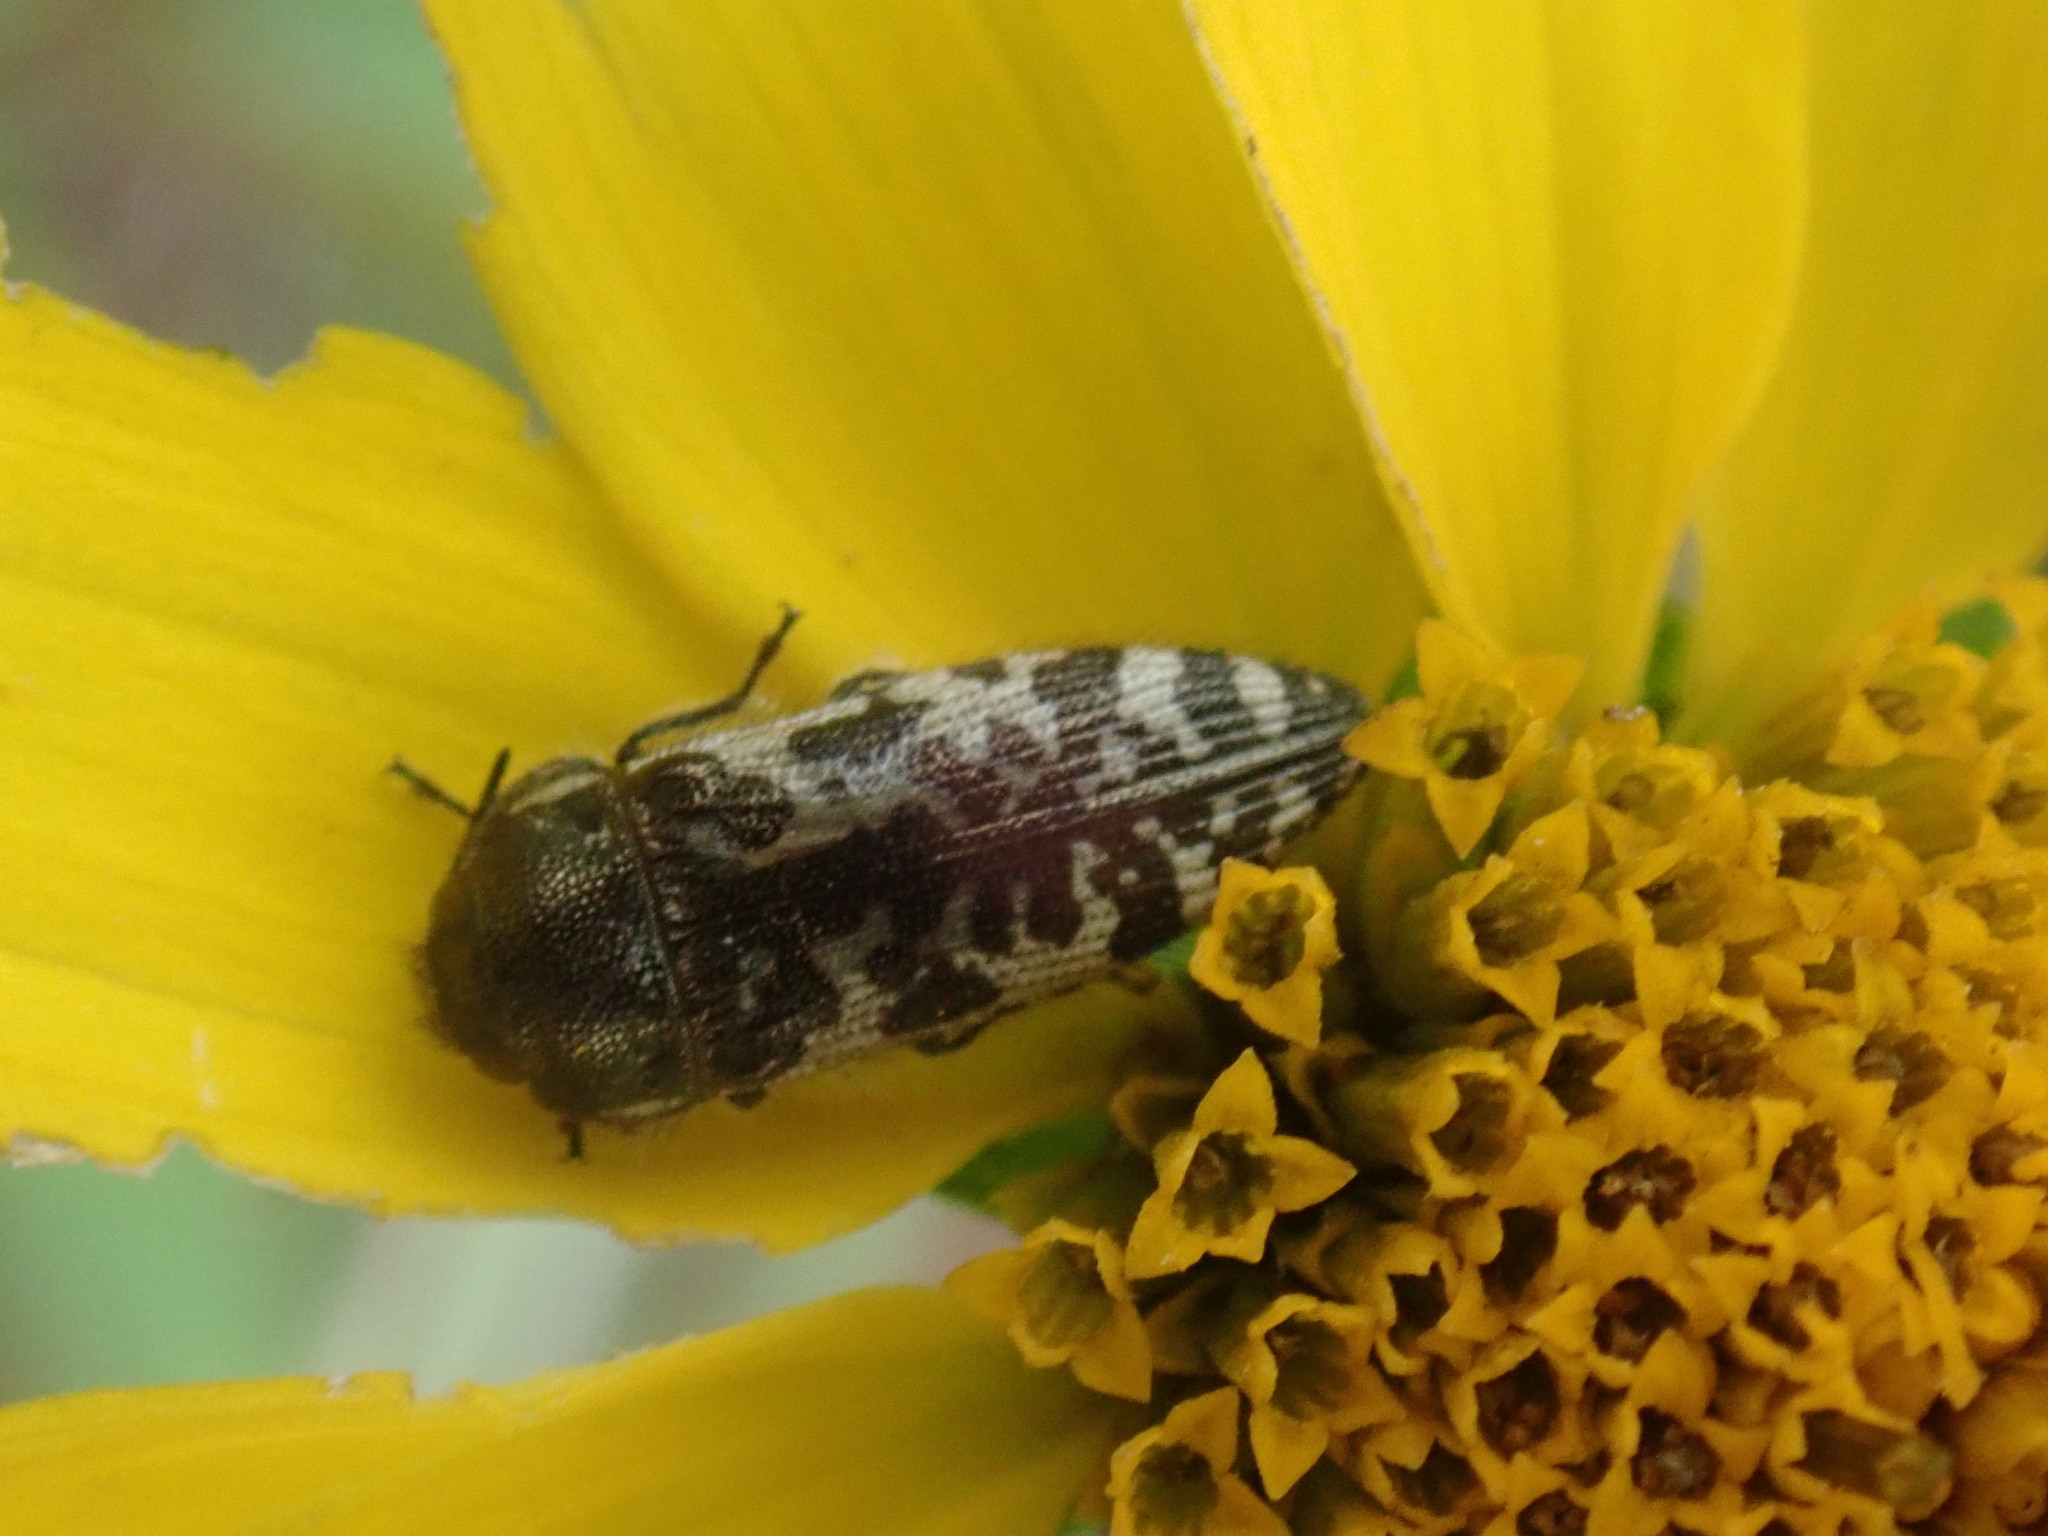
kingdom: Animalia
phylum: Arthropoda
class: Insecta
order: Coleoptera
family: Buprestidae
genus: Acmaeodera
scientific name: Acmaeodera decipiens
